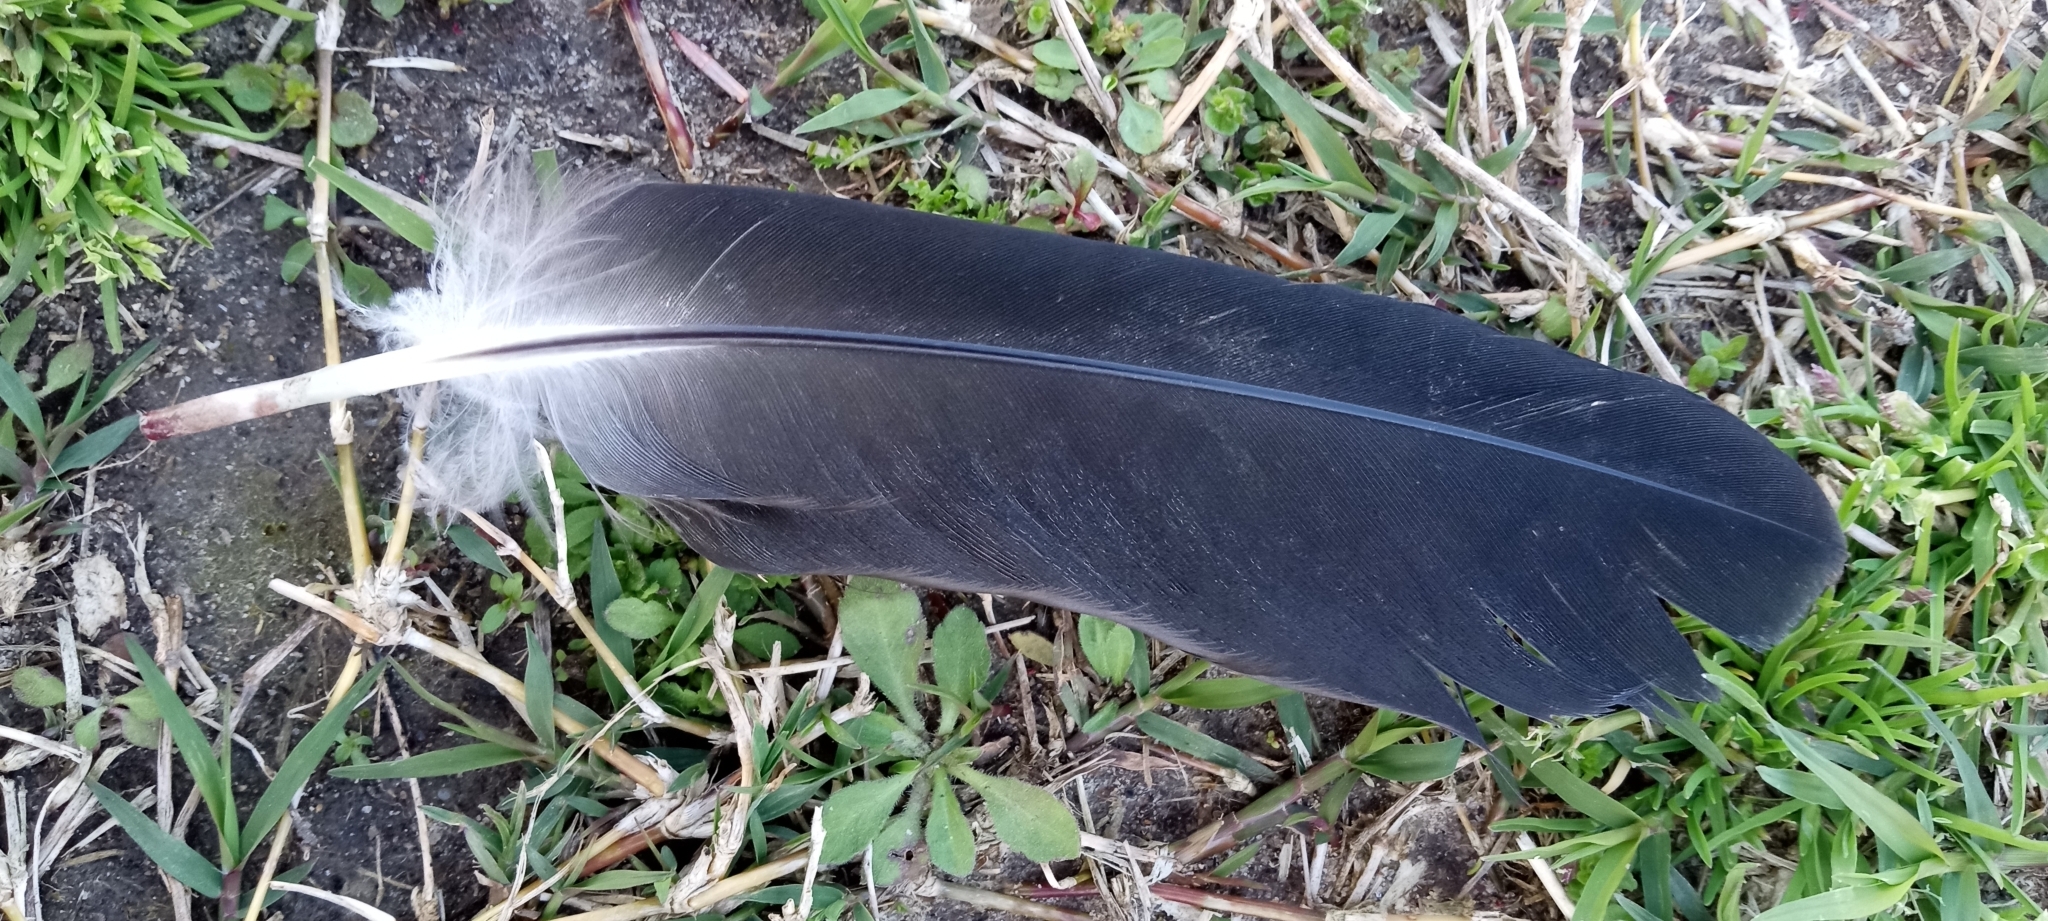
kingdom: Animalia
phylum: Chordata
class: Aves
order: Anseriformes
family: Anatidae
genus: Branta
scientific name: Branta canadensis
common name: Canada goose
